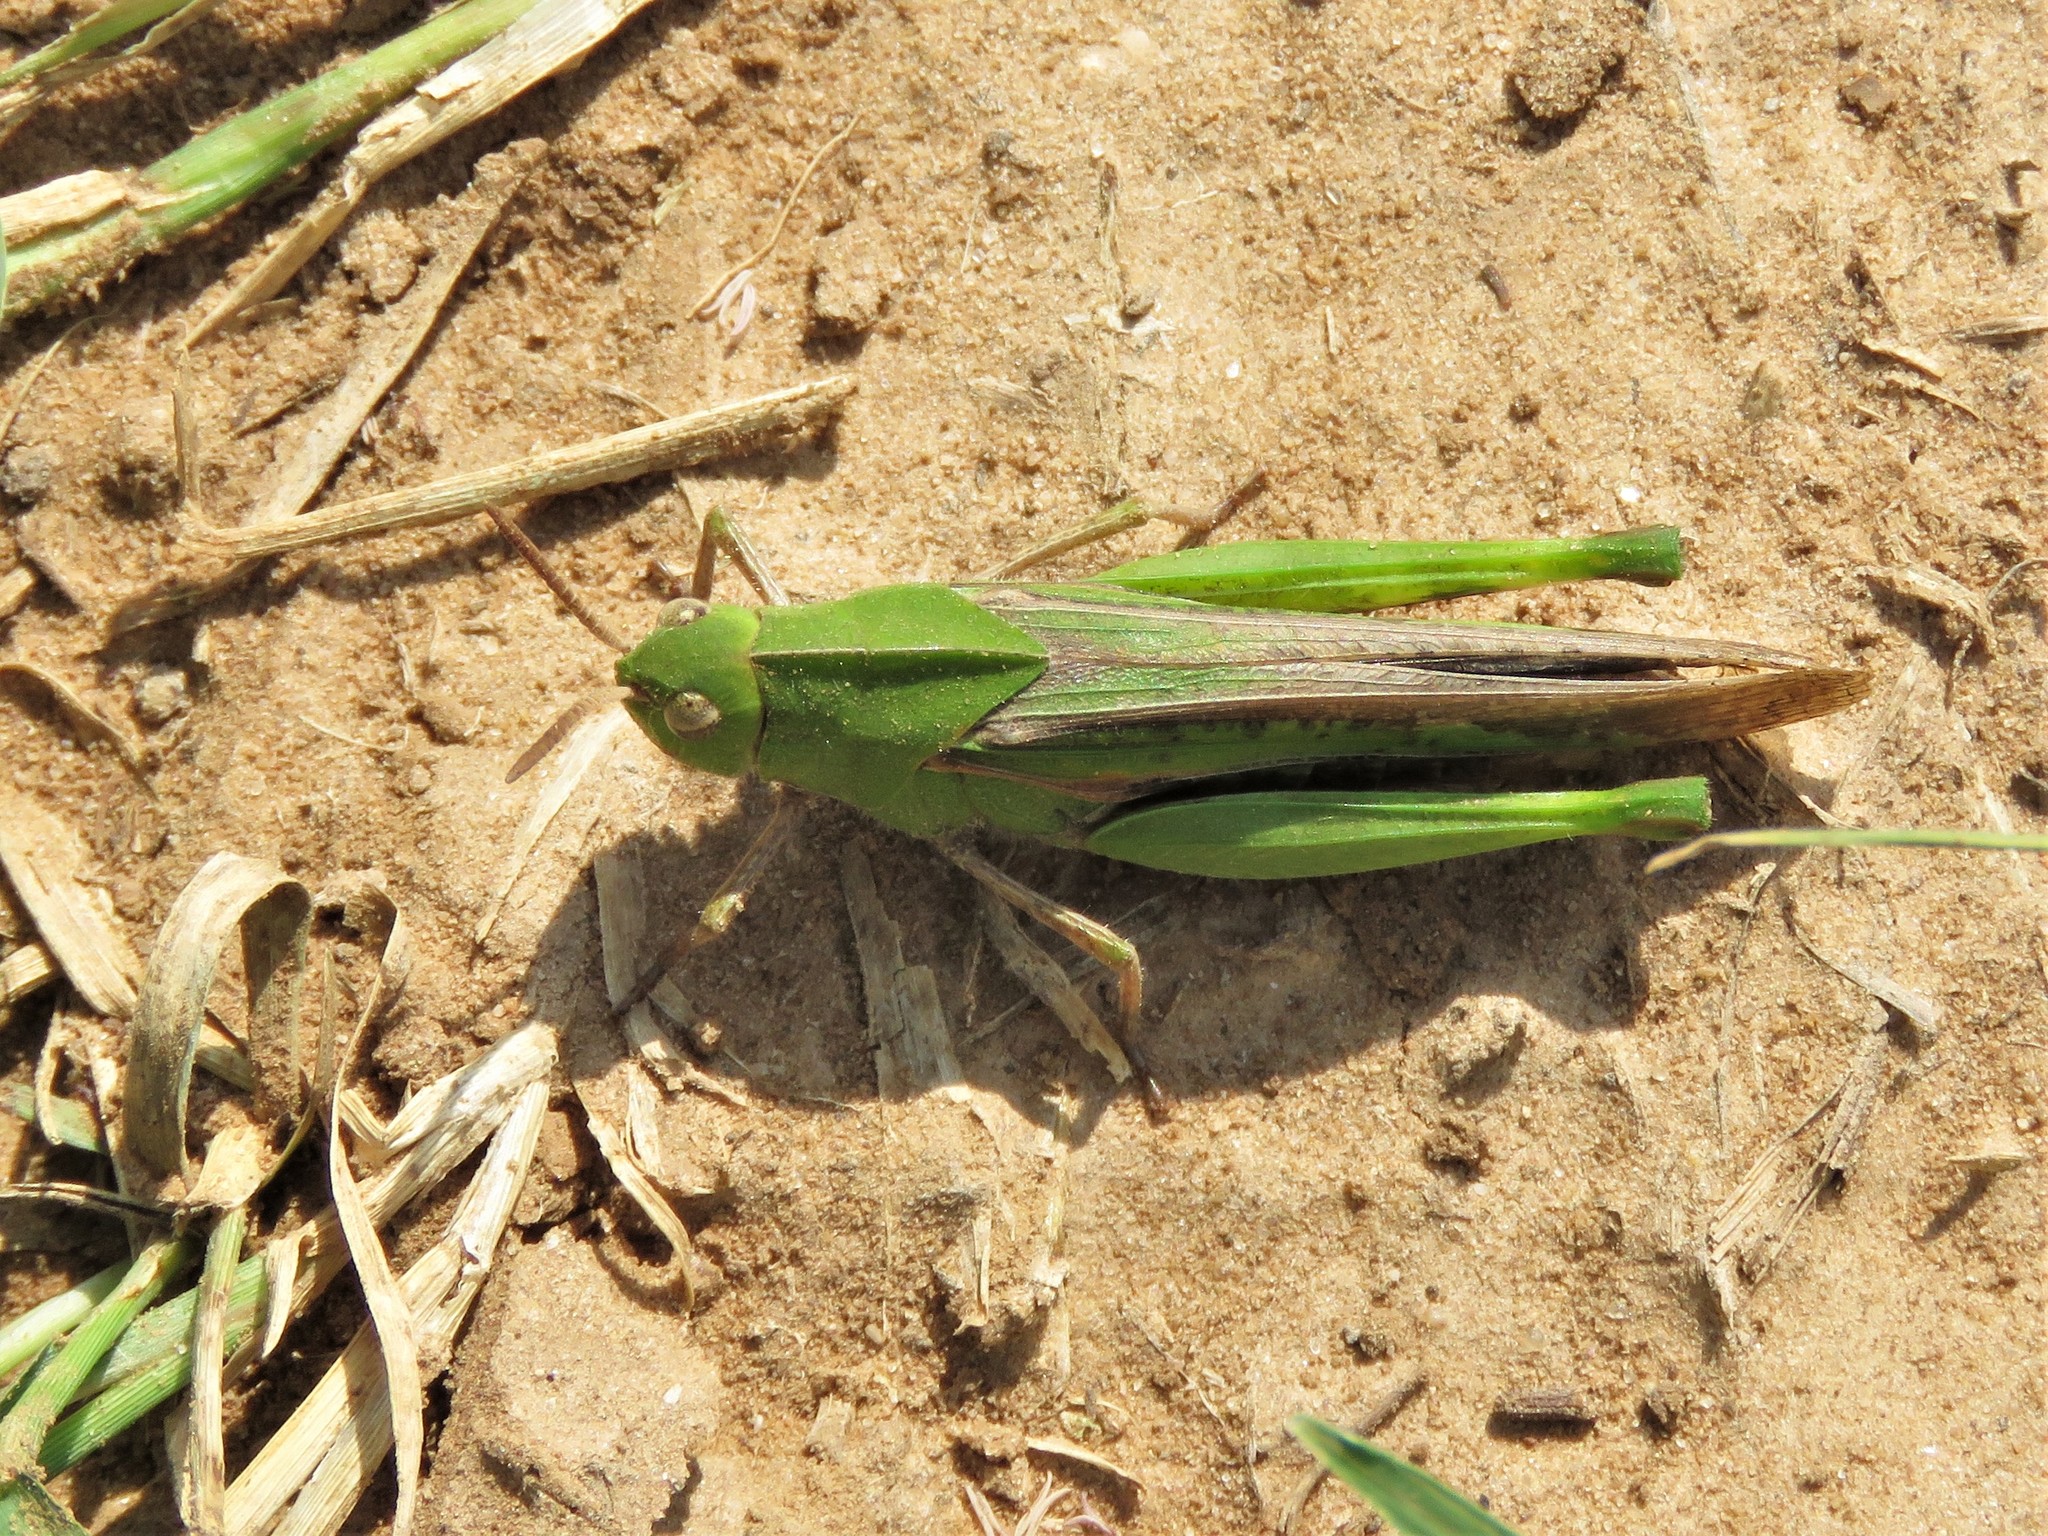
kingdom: Animalia
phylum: Arthropoda
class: Insecta
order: Orthoptera
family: Acrididae
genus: Chortophaga
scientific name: Chortophaga viridifasciata
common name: Green-striped grasshopper
